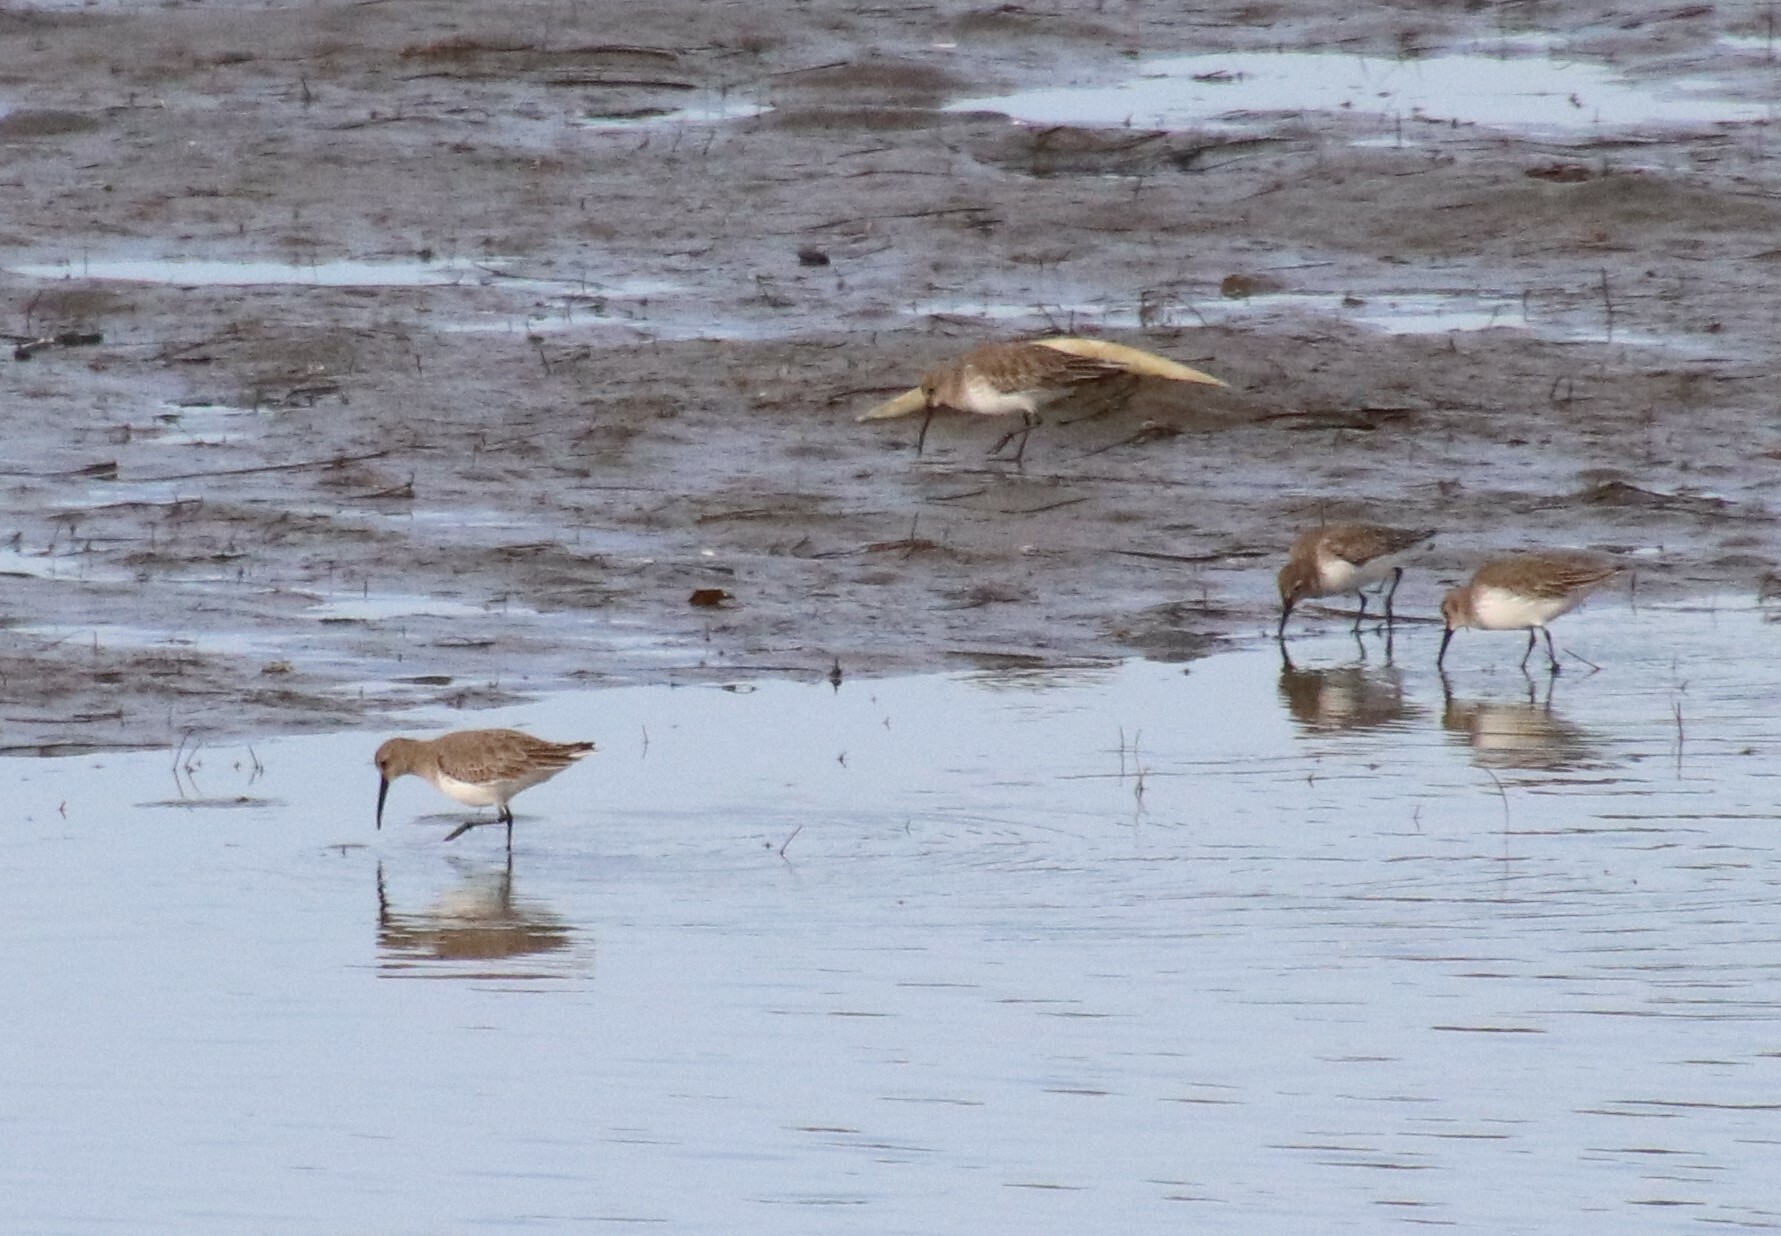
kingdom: Animalia
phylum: Chordata
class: Aves
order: Charadriiformes
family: Scolopacidae
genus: Calidris
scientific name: Calidris alpina
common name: Dunlin
